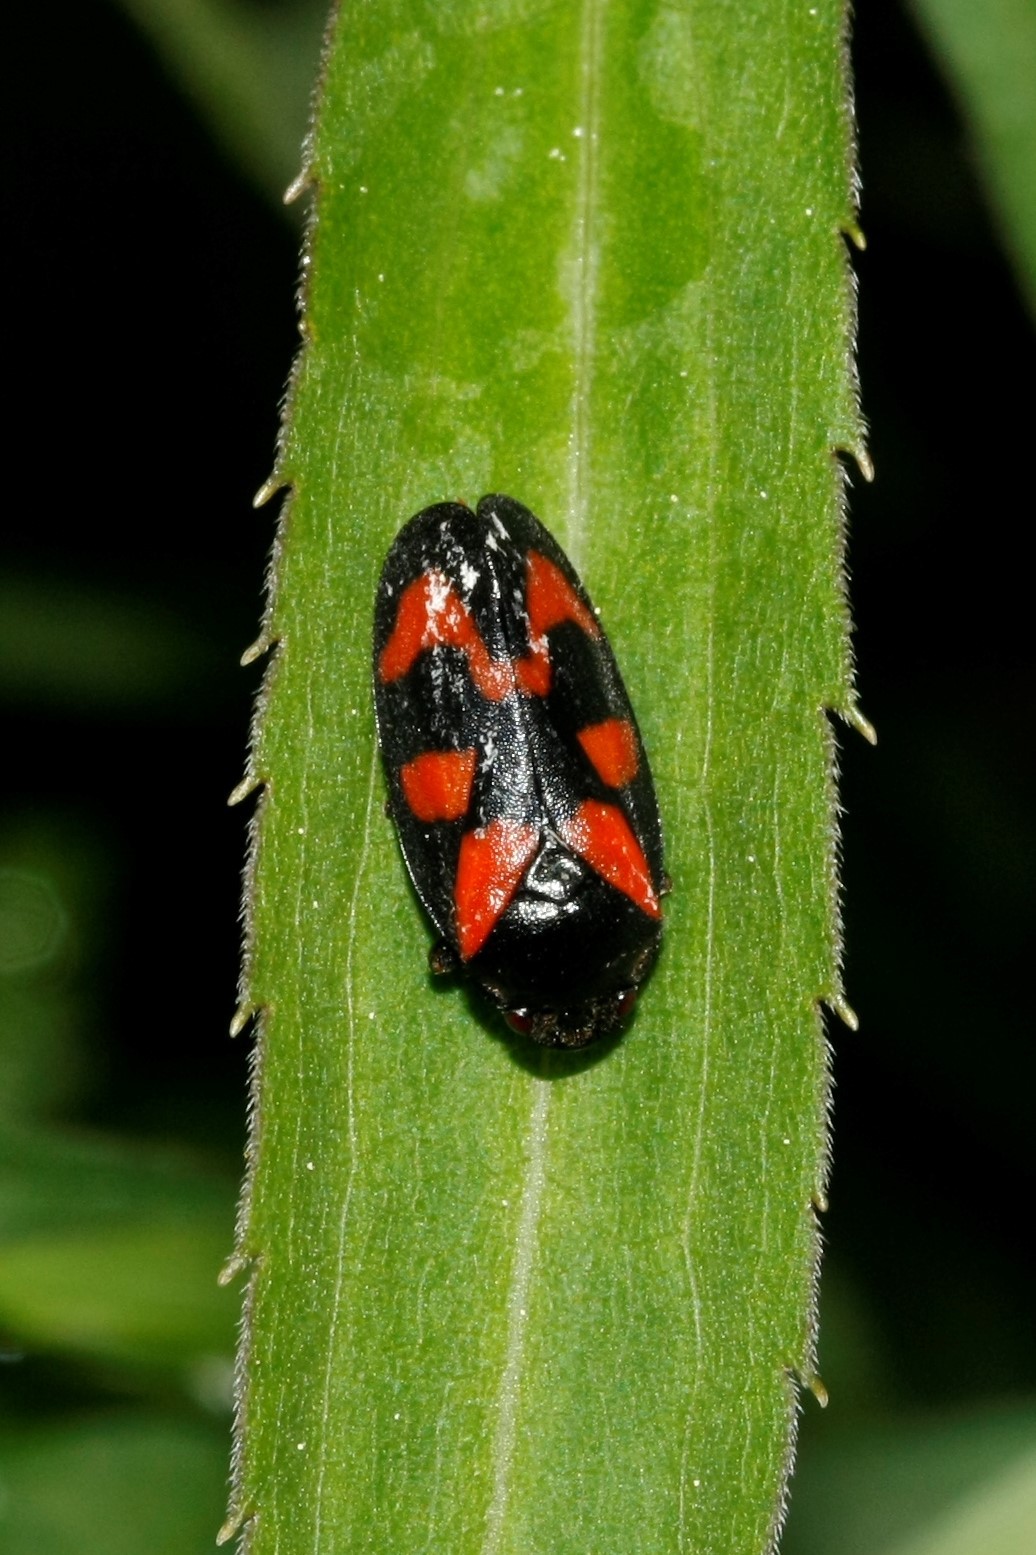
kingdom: Animalia
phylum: Arthropoda
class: Insecta
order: Hemiptera
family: Cercopidae
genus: Cercopis
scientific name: Cercopis vulnerata
